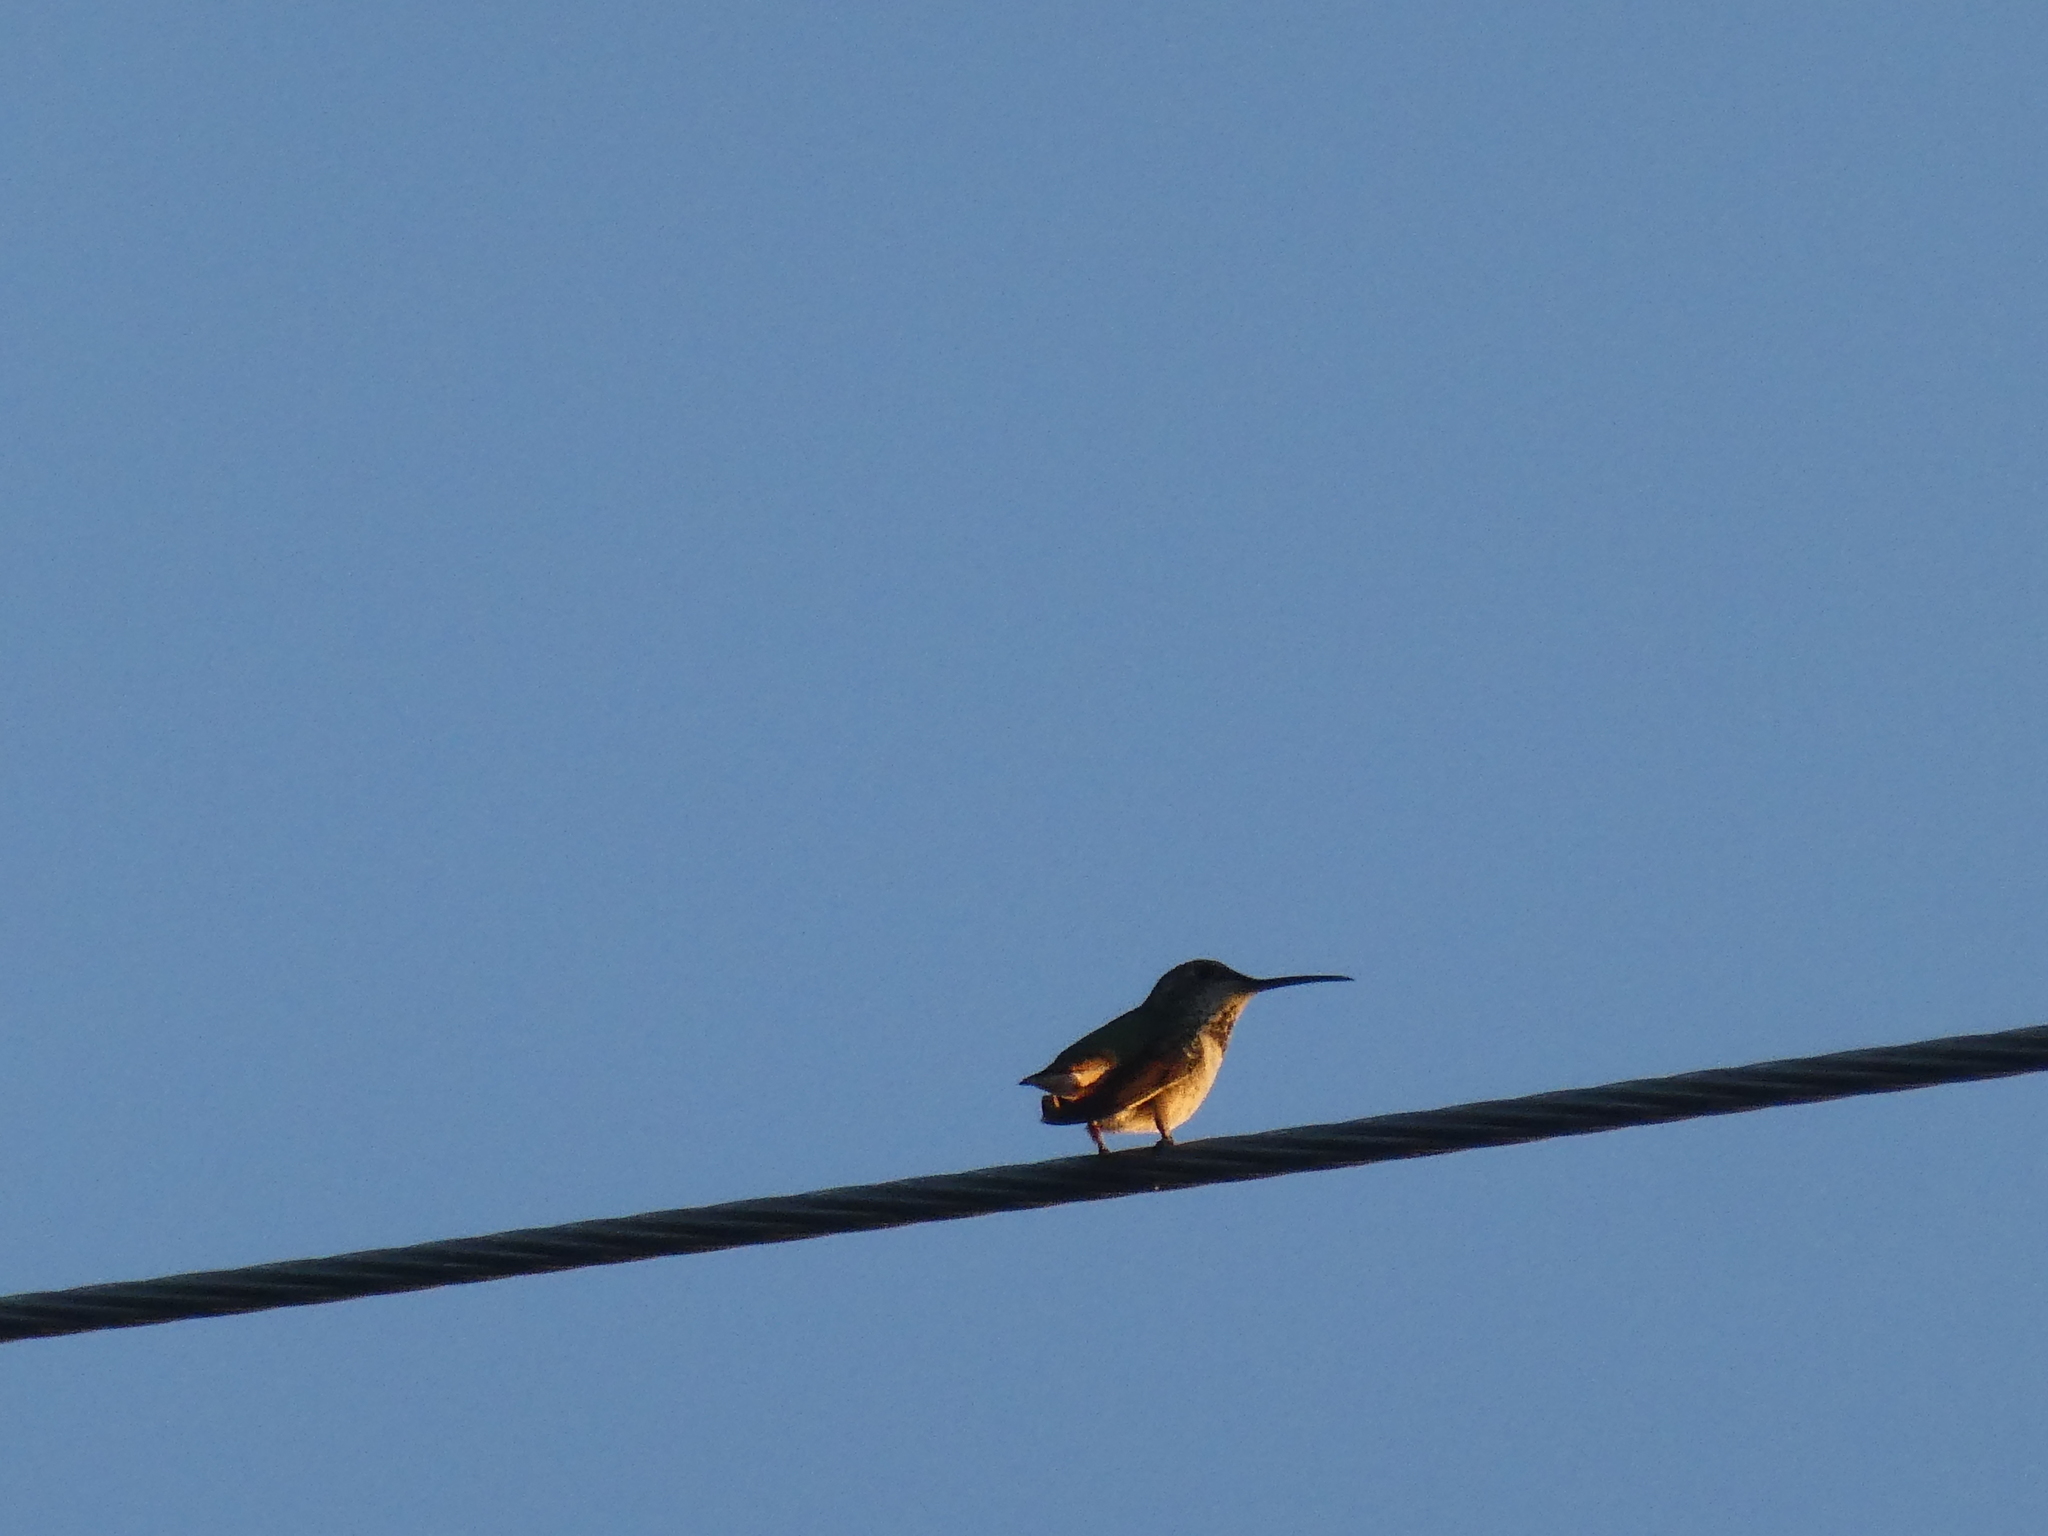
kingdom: Animalia
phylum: Chordata
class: Aves
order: Apodiformes
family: Trochilidae
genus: Selasphorus
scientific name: Selasphorus
